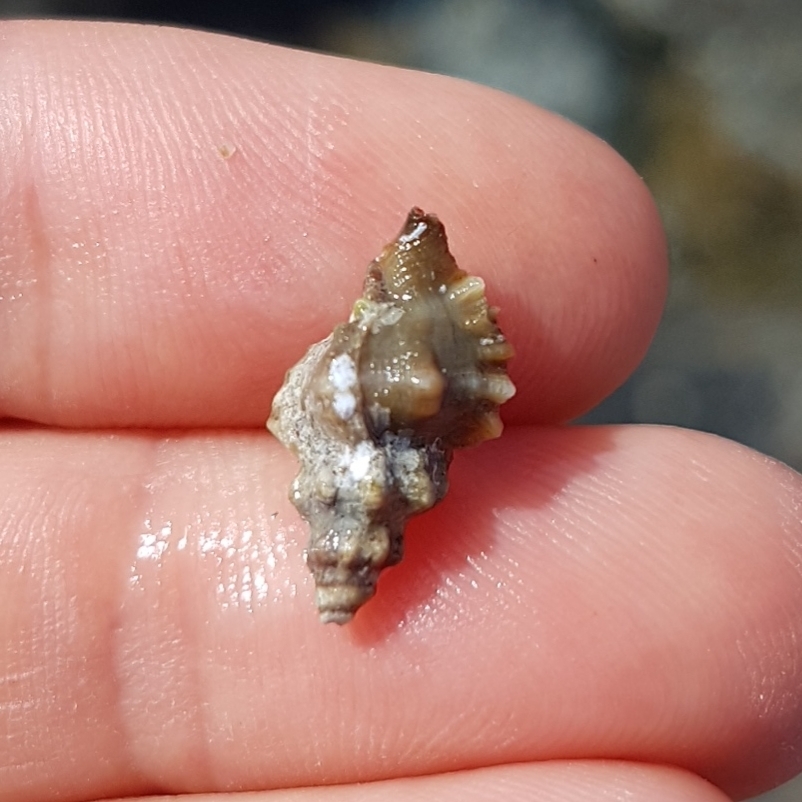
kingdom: Animalia
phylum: Mollusca
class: Gastropoda
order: Neogastropoda
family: Muricidae
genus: Ocenebra
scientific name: Ocenebra edwardsii
